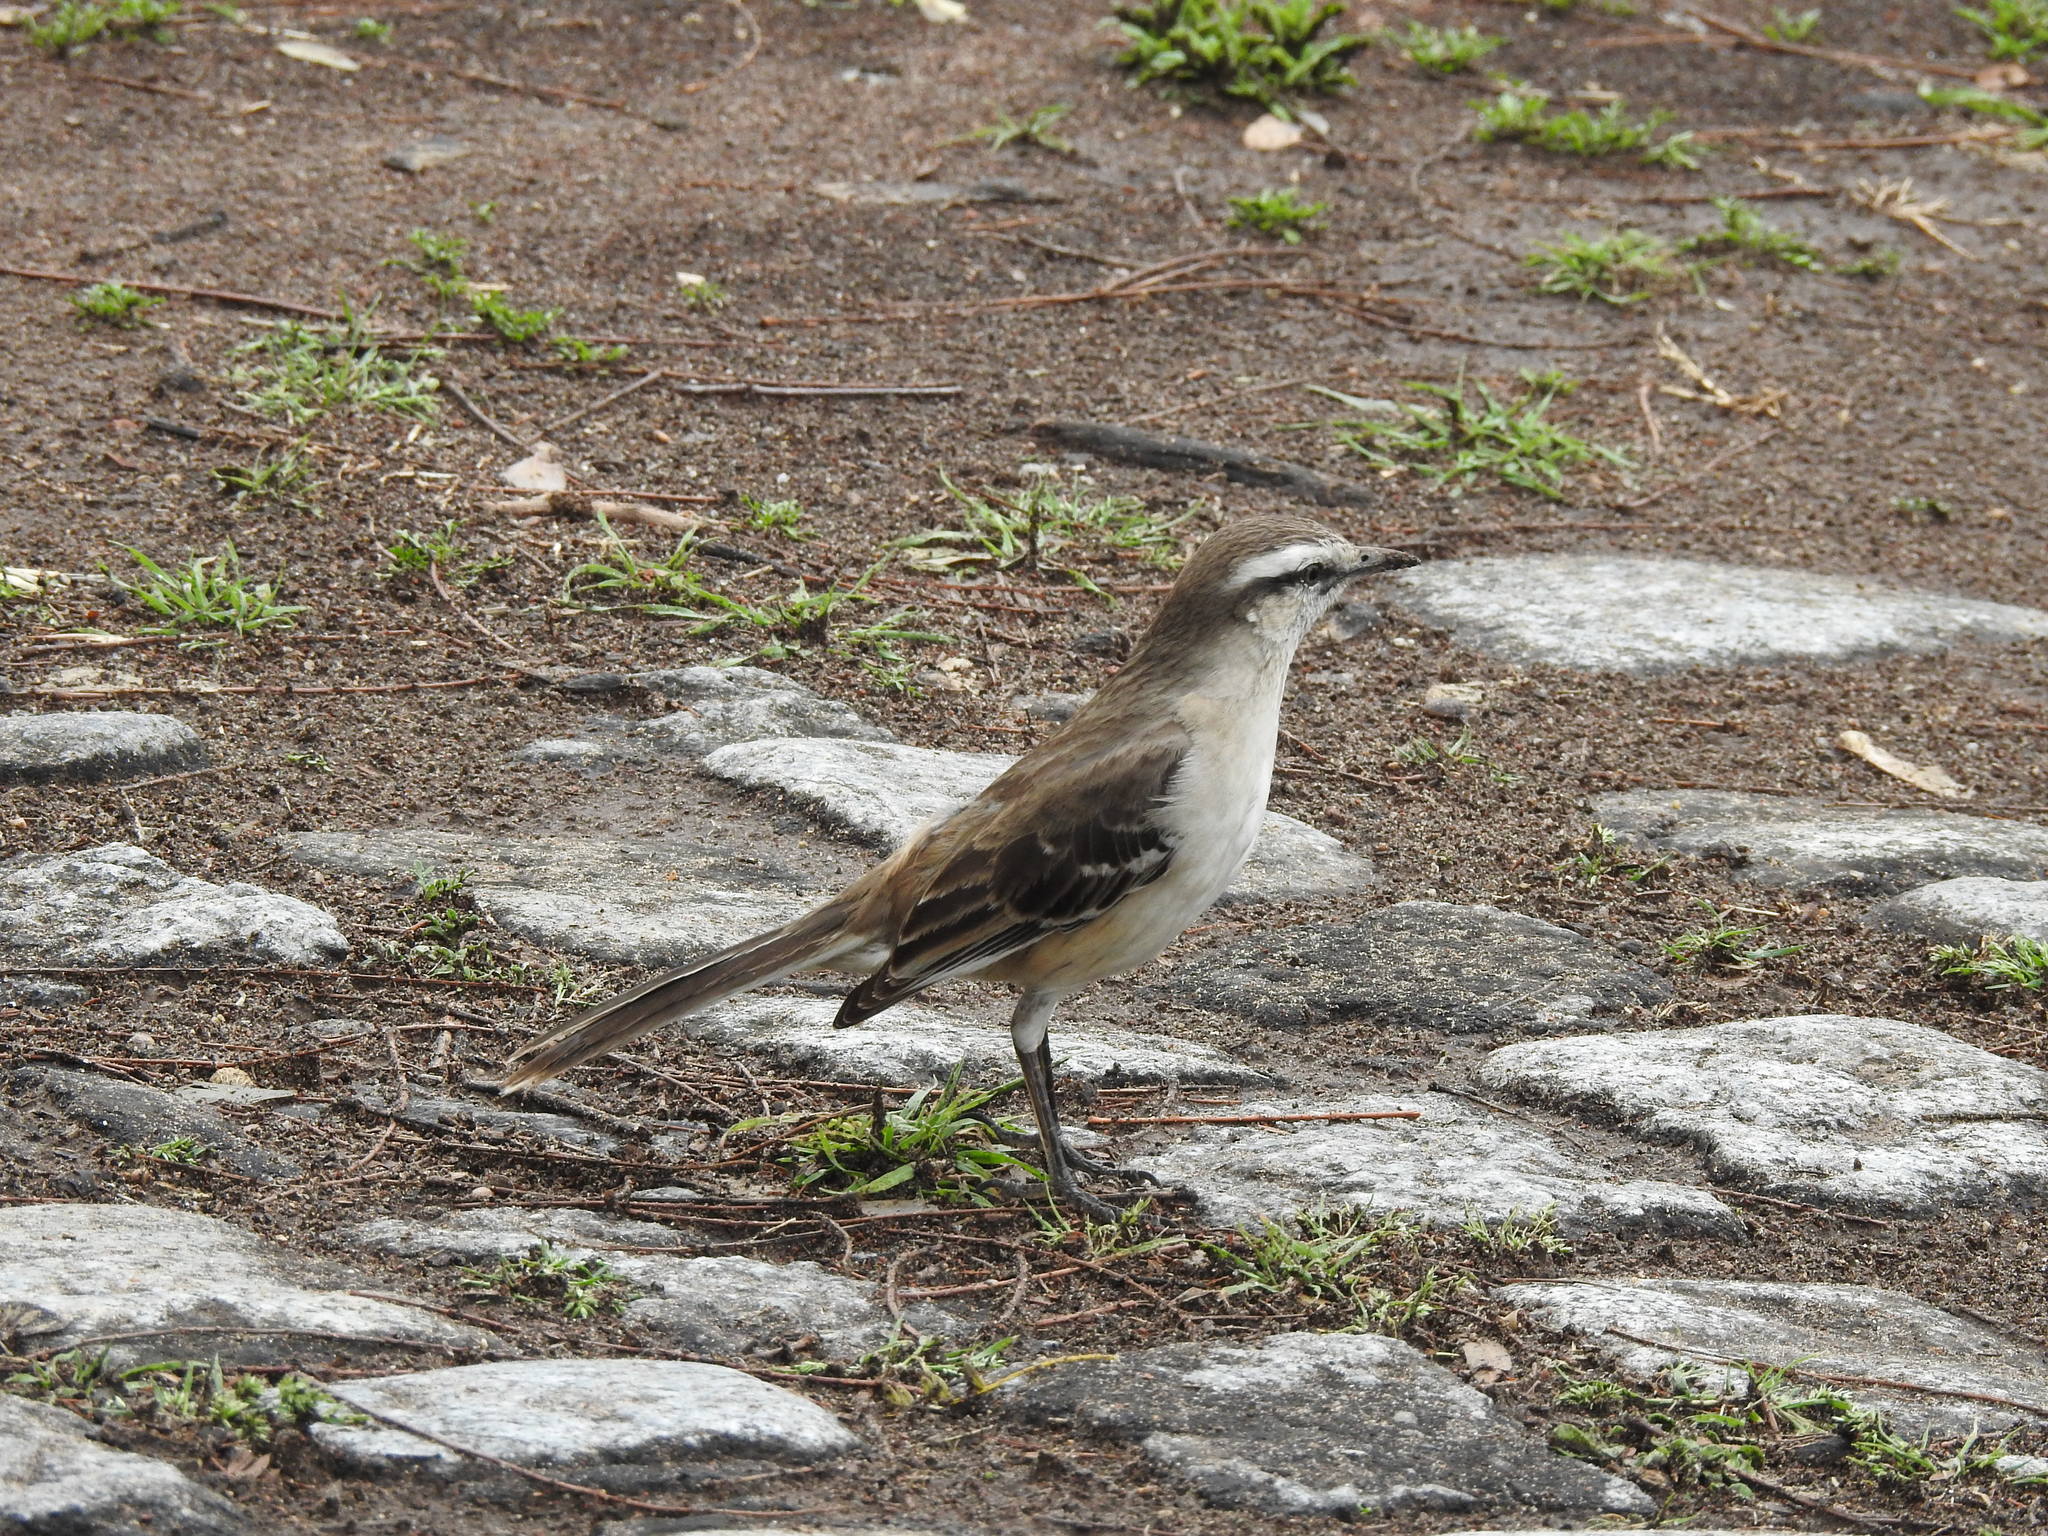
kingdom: Animalia
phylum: Chordata
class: Aves
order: Passeriformes
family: Mimidae
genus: Mimus
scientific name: Mimus saturninus
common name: Chalk-browed mockingbird
